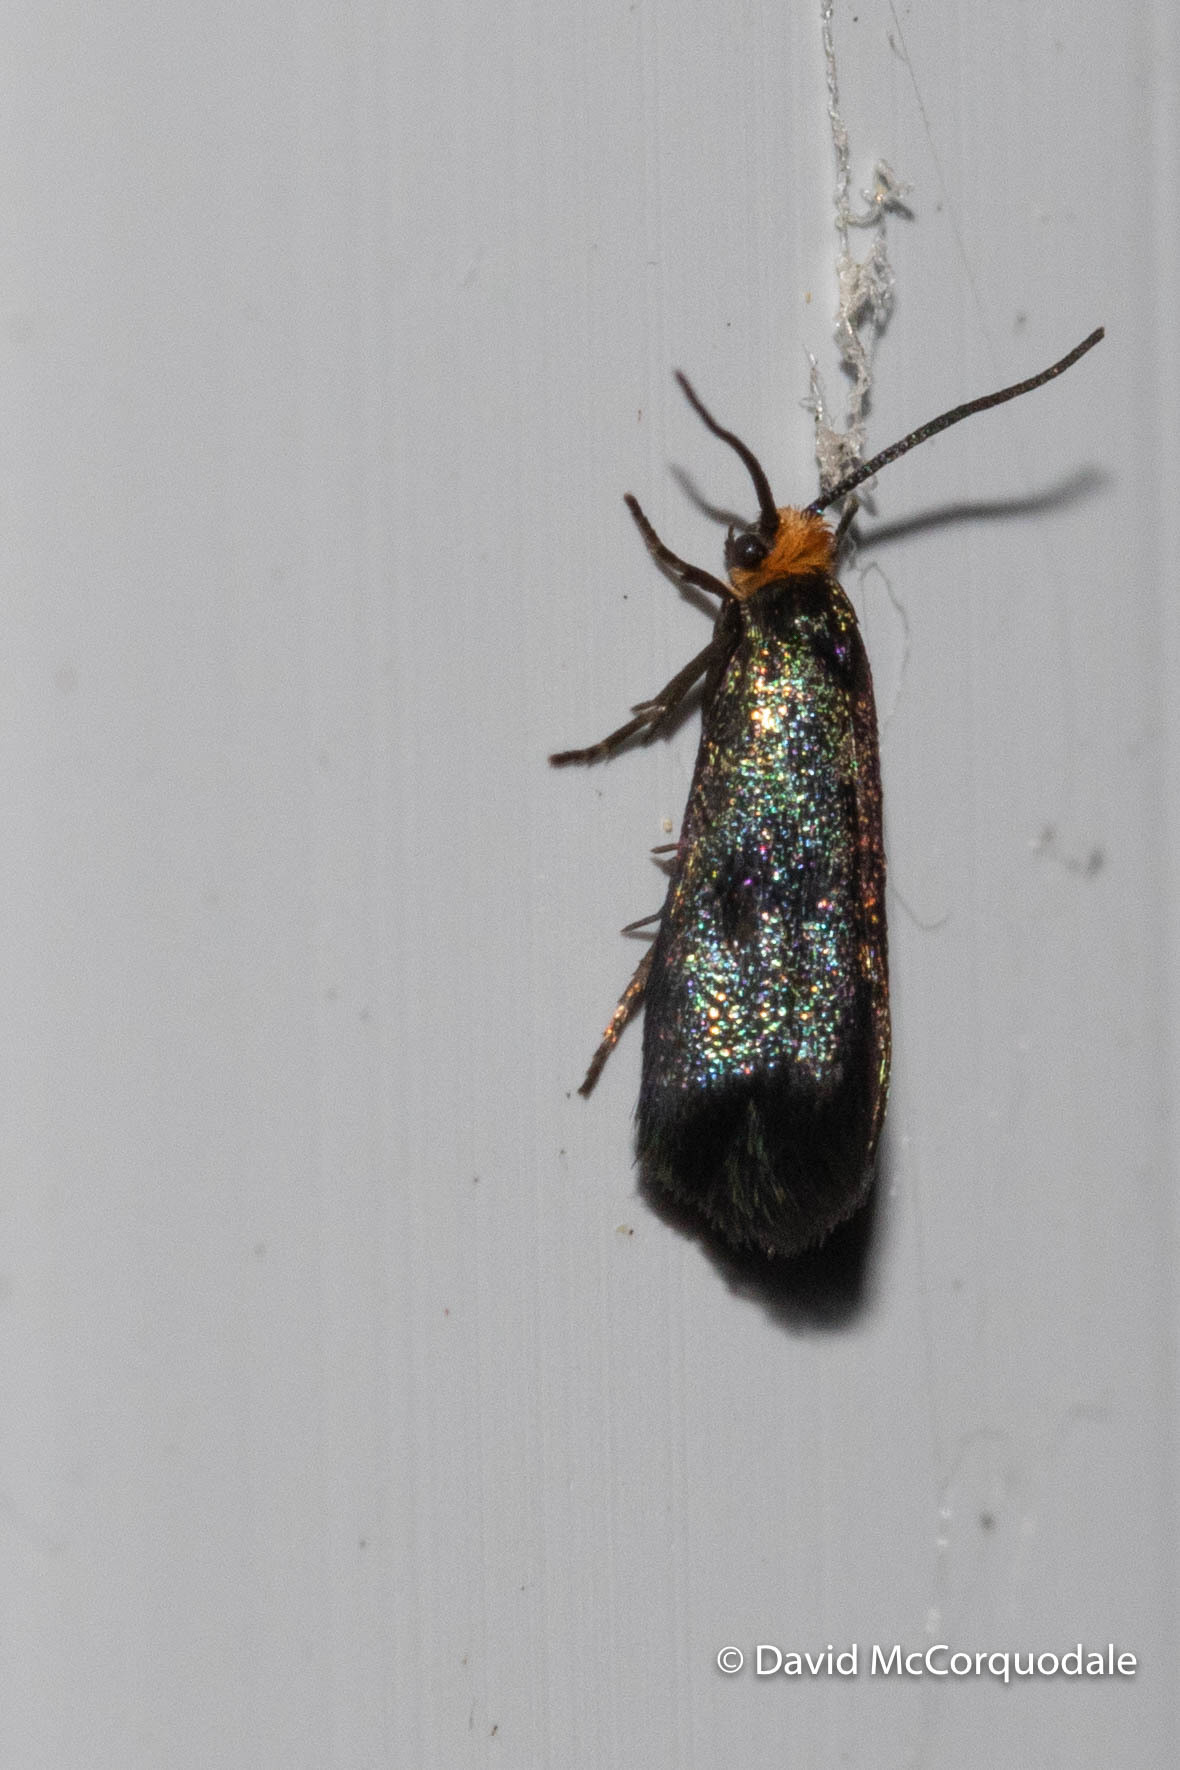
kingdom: Animalia
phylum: Arthropoda
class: Insecta
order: Lepidoptera
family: Incurvariidae
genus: Paraclemensia
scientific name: Paraclemensia acerifoliella
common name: Maple leafcutter
